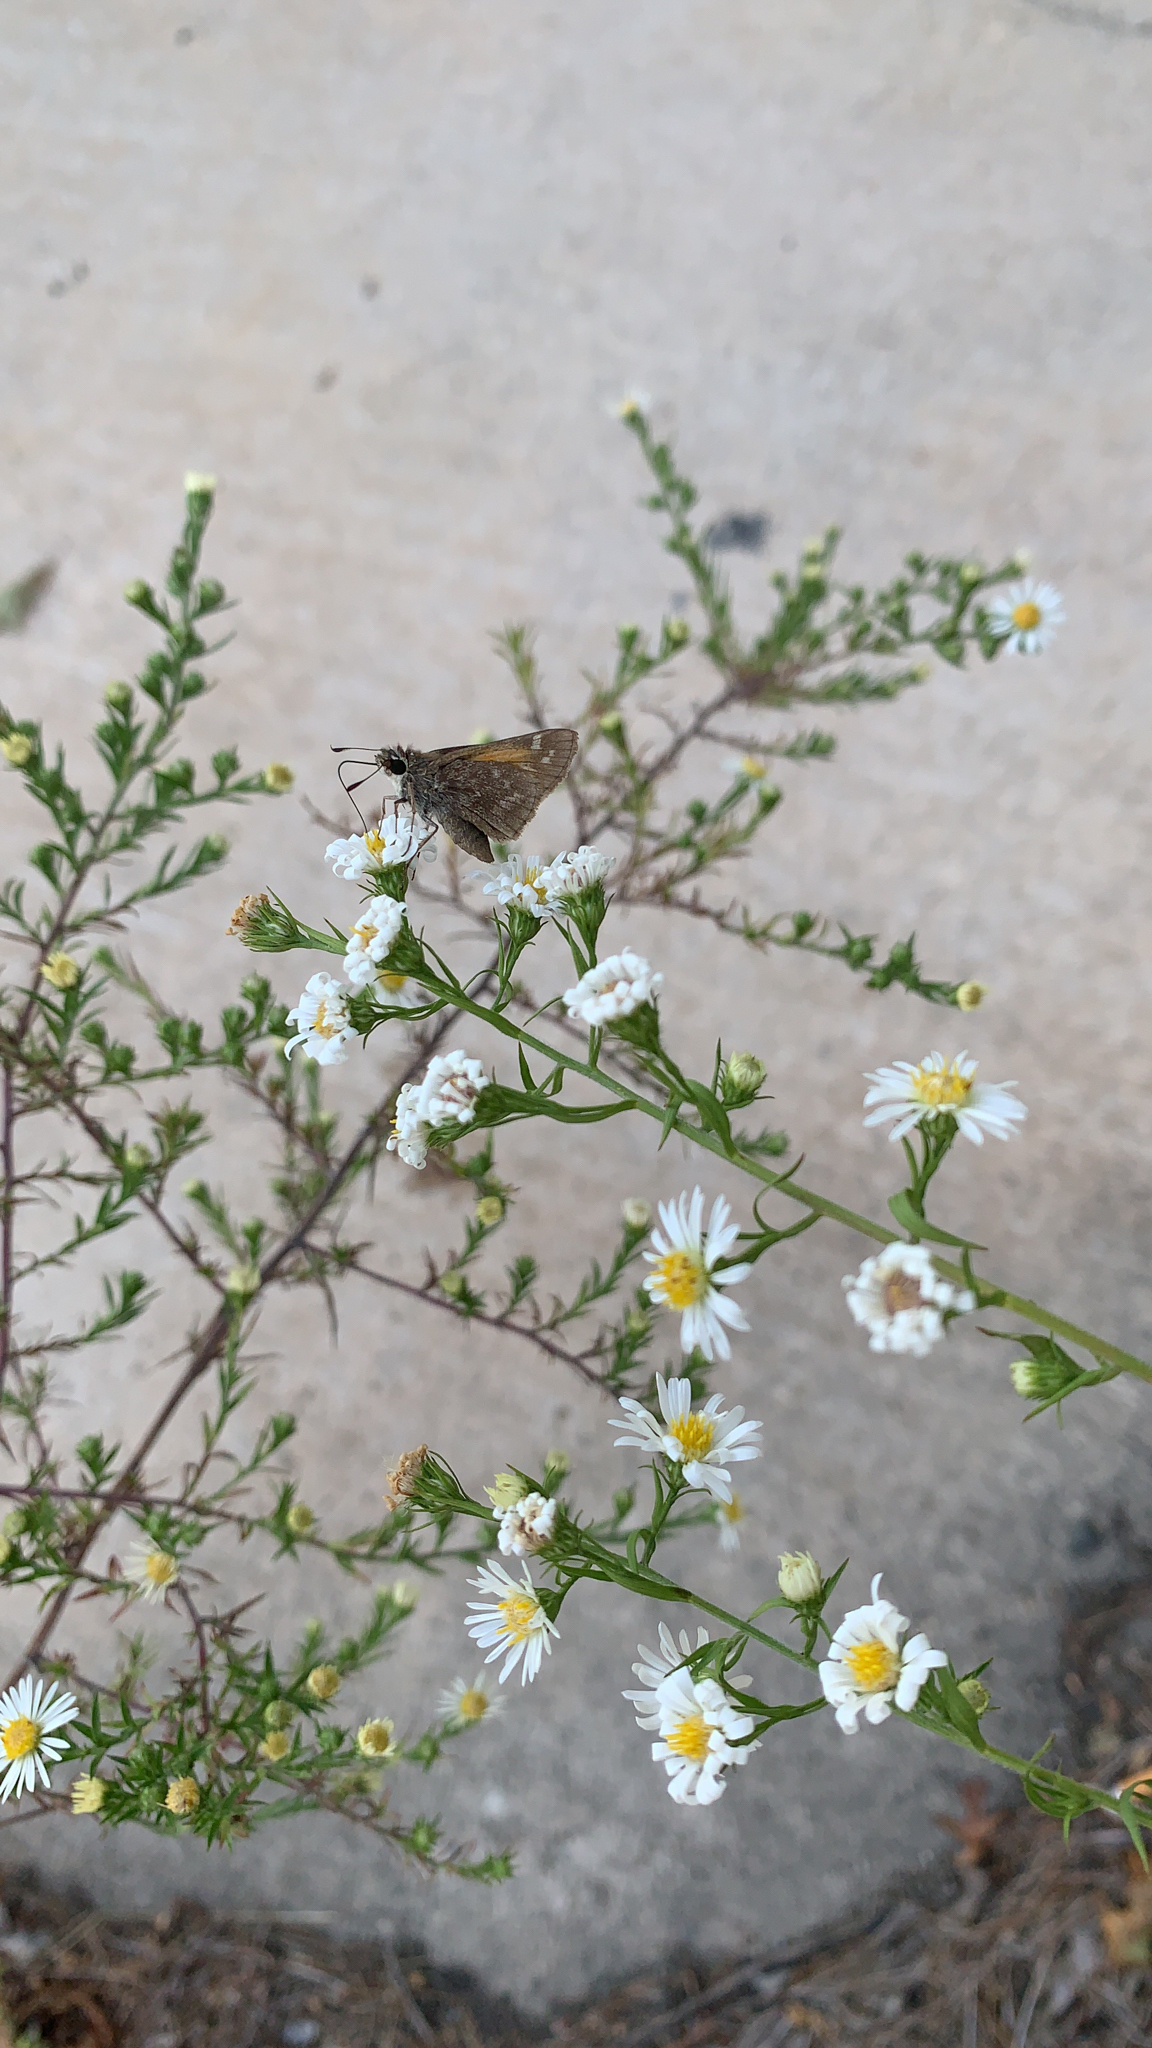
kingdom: Animalia
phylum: Arthropoda
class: Insecta
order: Lepidoptera
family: Hesperiidae
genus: Atalopedes
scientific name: Atalopedes
